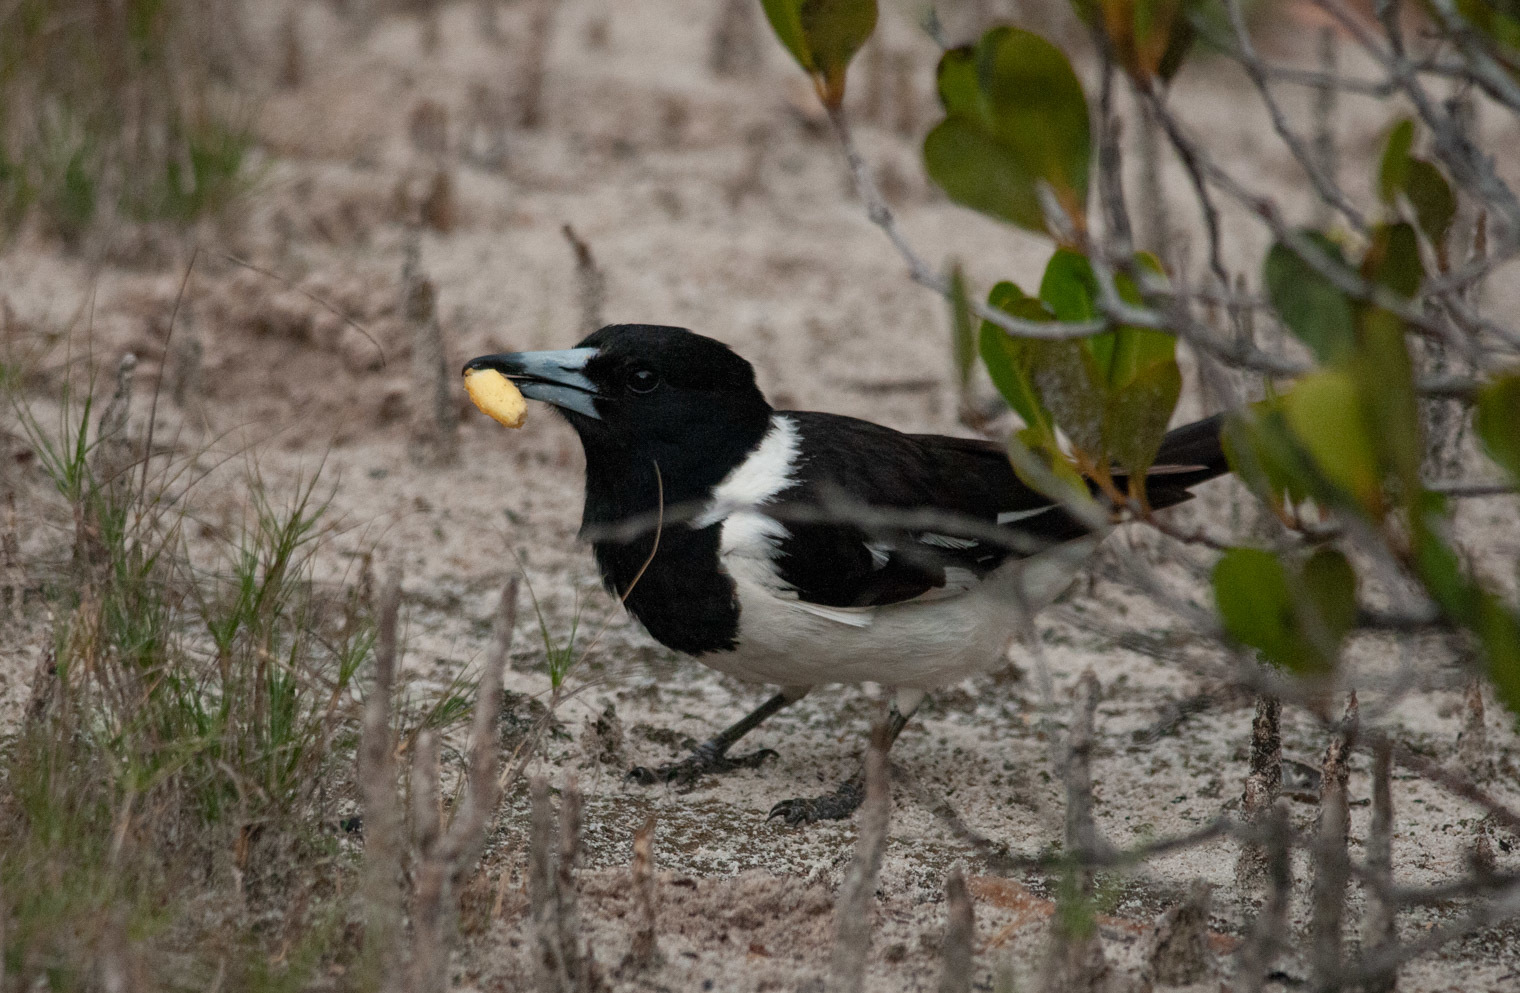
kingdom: Animalia
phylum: Chordata
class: Aves
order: Passeriformes
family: Cracticidae
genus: Cracticus
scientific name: Cracticus nigrogularis
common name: Pied butcherbird
